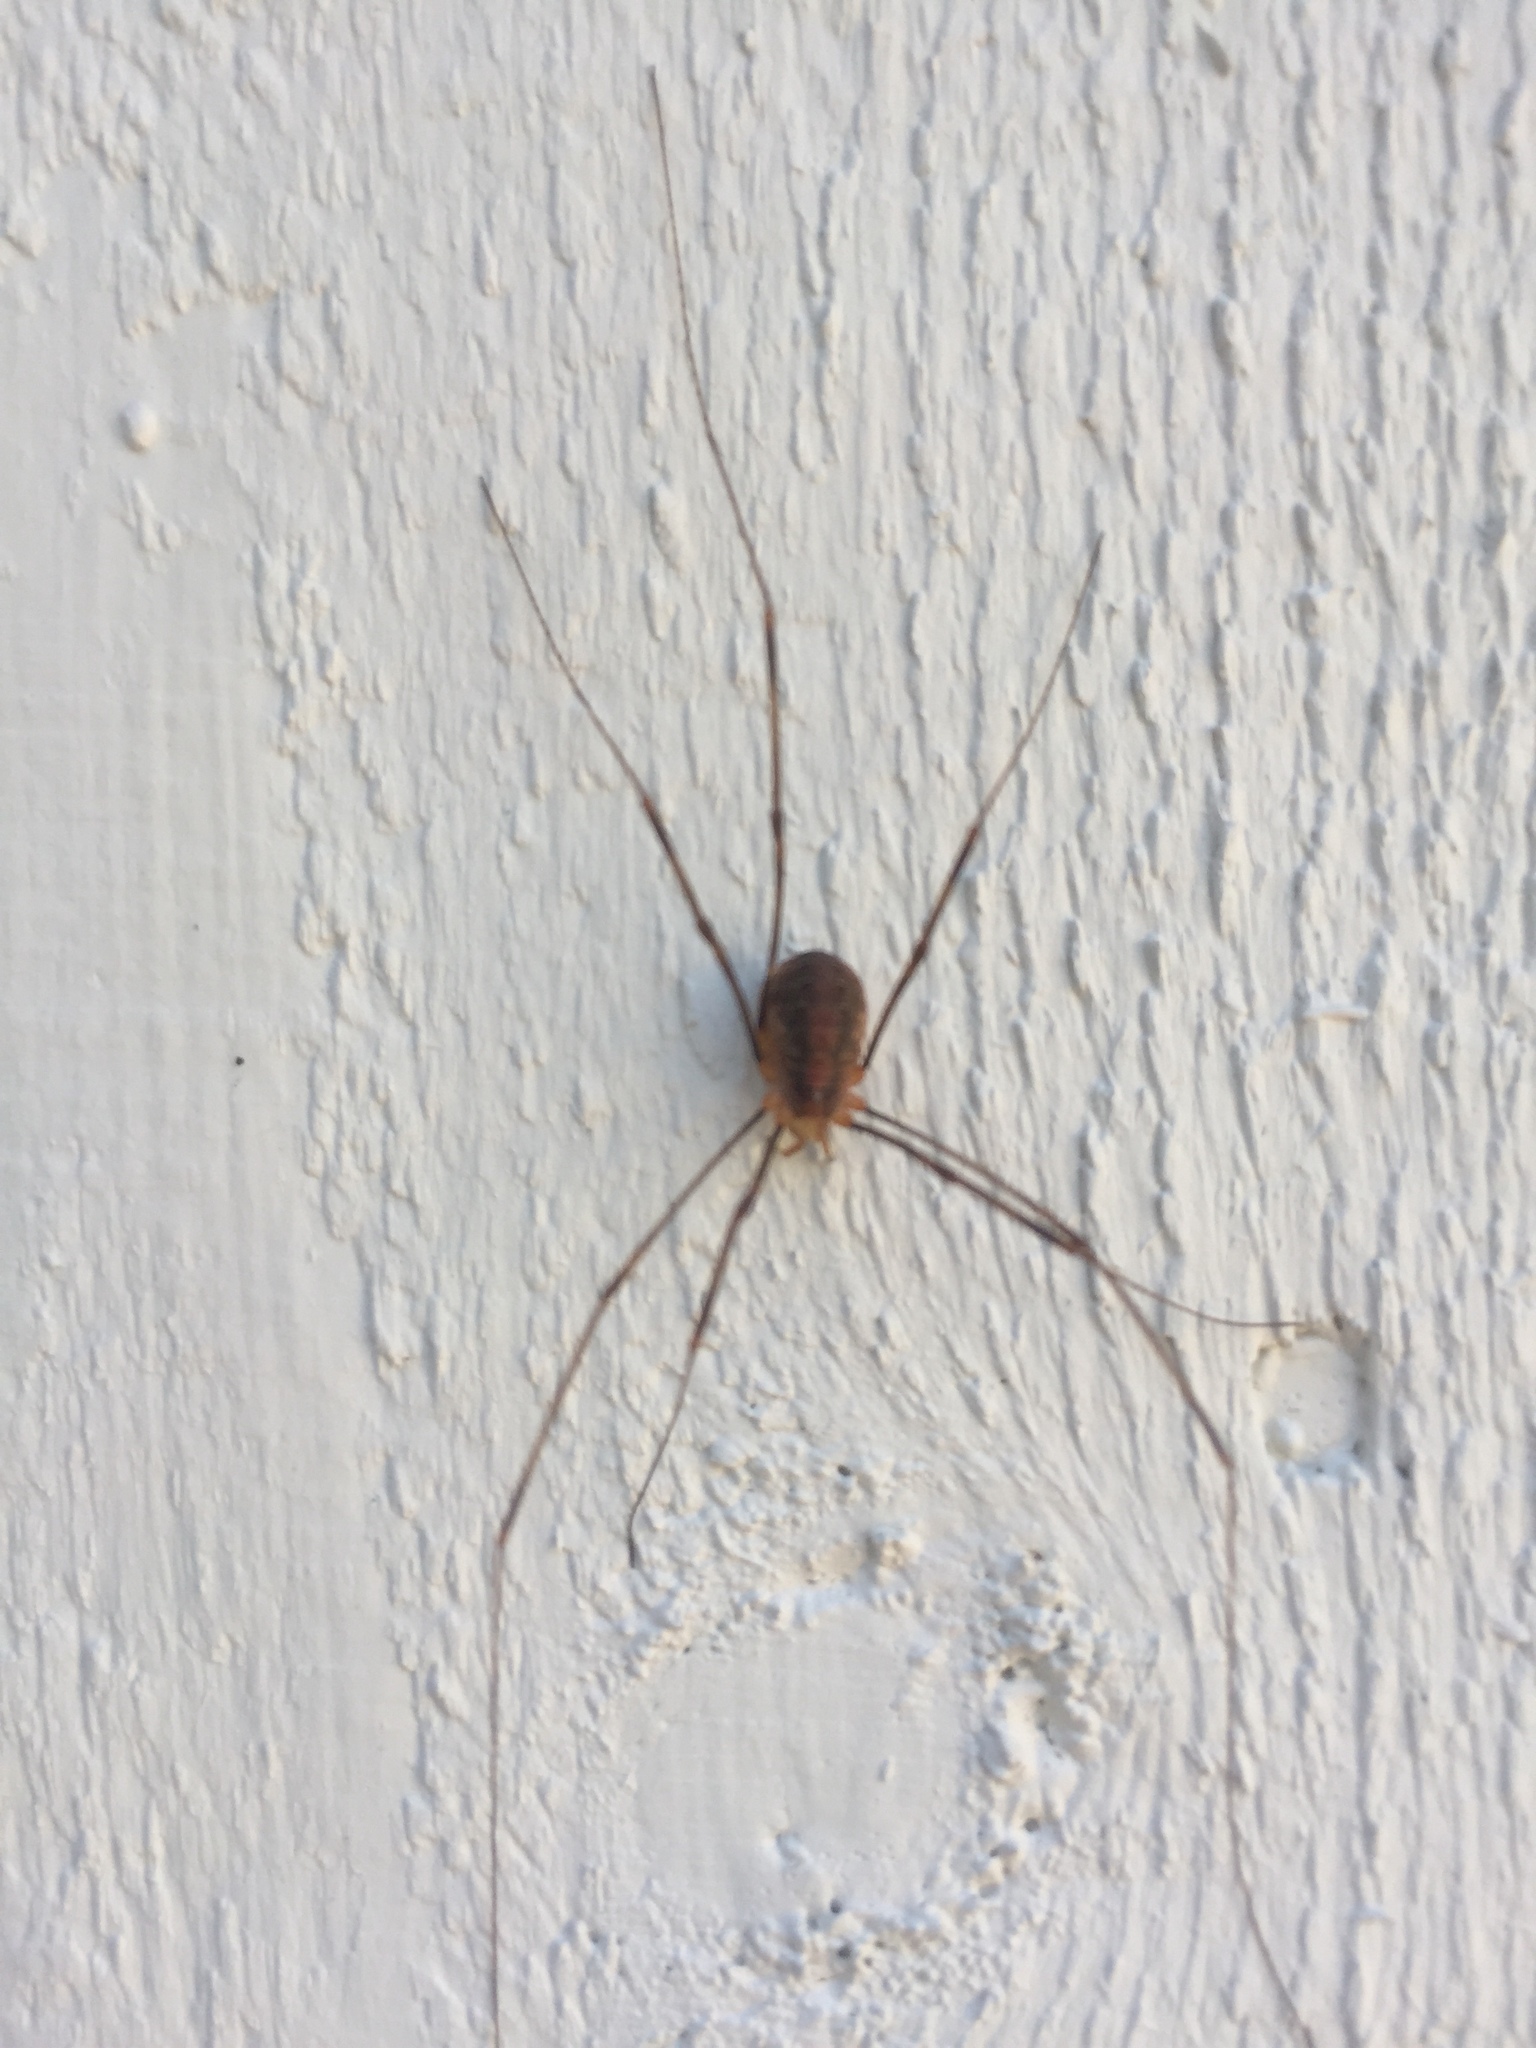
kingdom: Animalia
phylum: Arthropoda
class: Arachnida
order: Opiliones
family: Phalangiidae
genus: Opilio
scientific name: Opilio canestrinii
